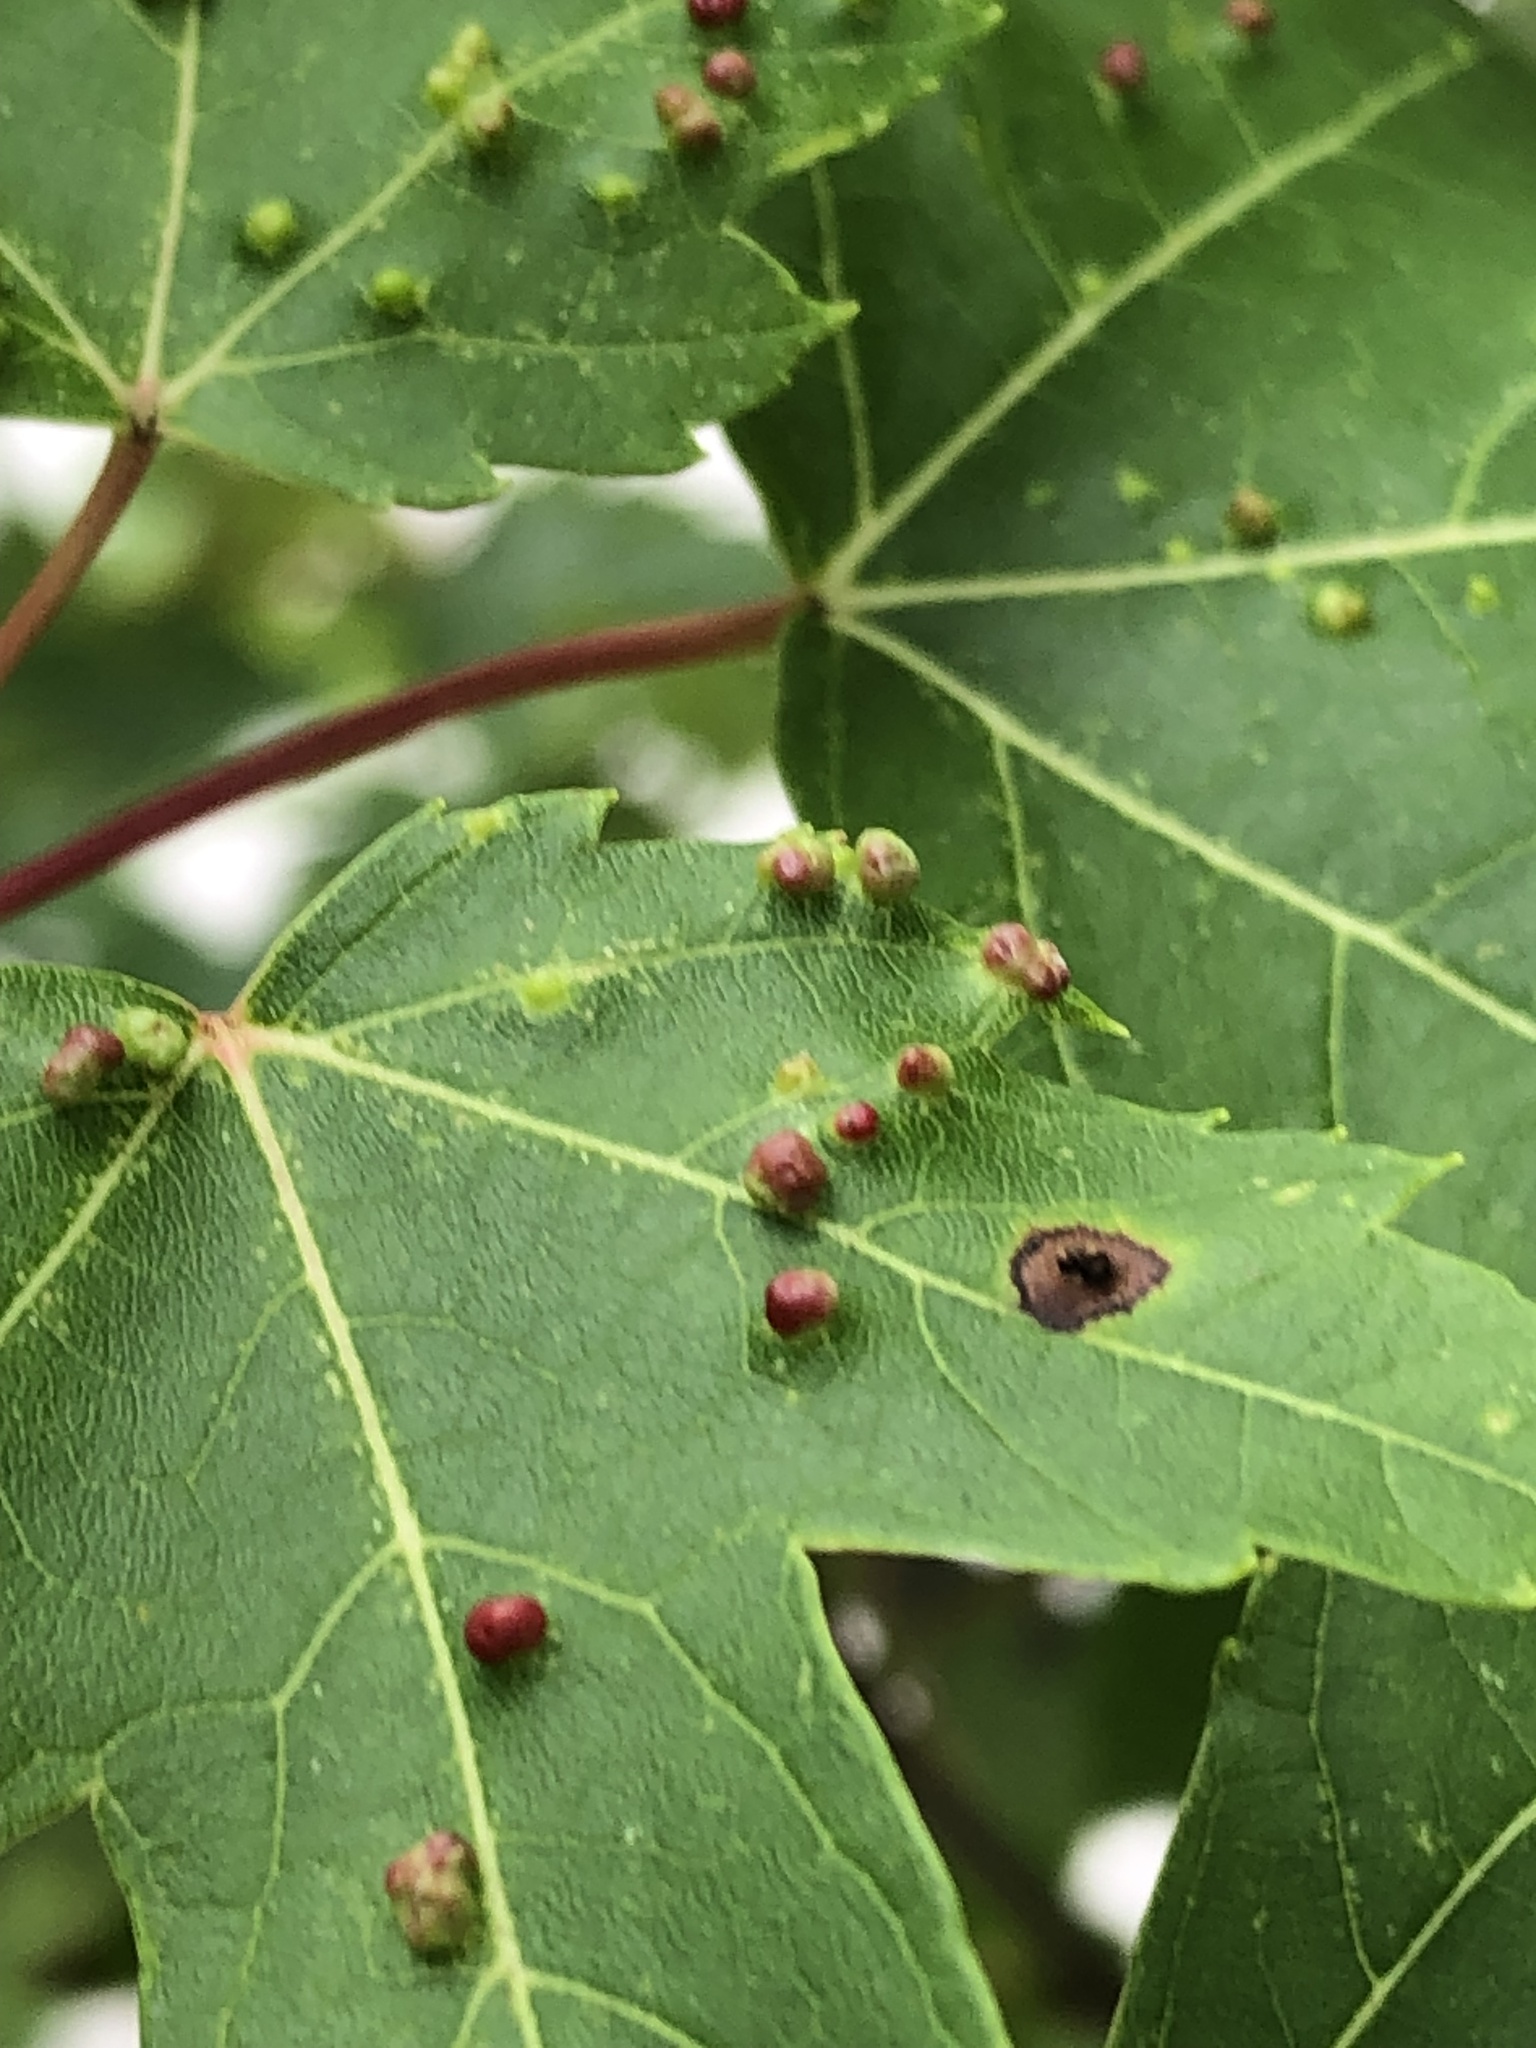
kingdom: Animalia
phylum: Arthropoda
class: Arachnida
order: Trombidiformes
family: Eriophyidae
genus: Vasates
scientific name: Vasates quadripedes
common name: Maple bladder gall mite
